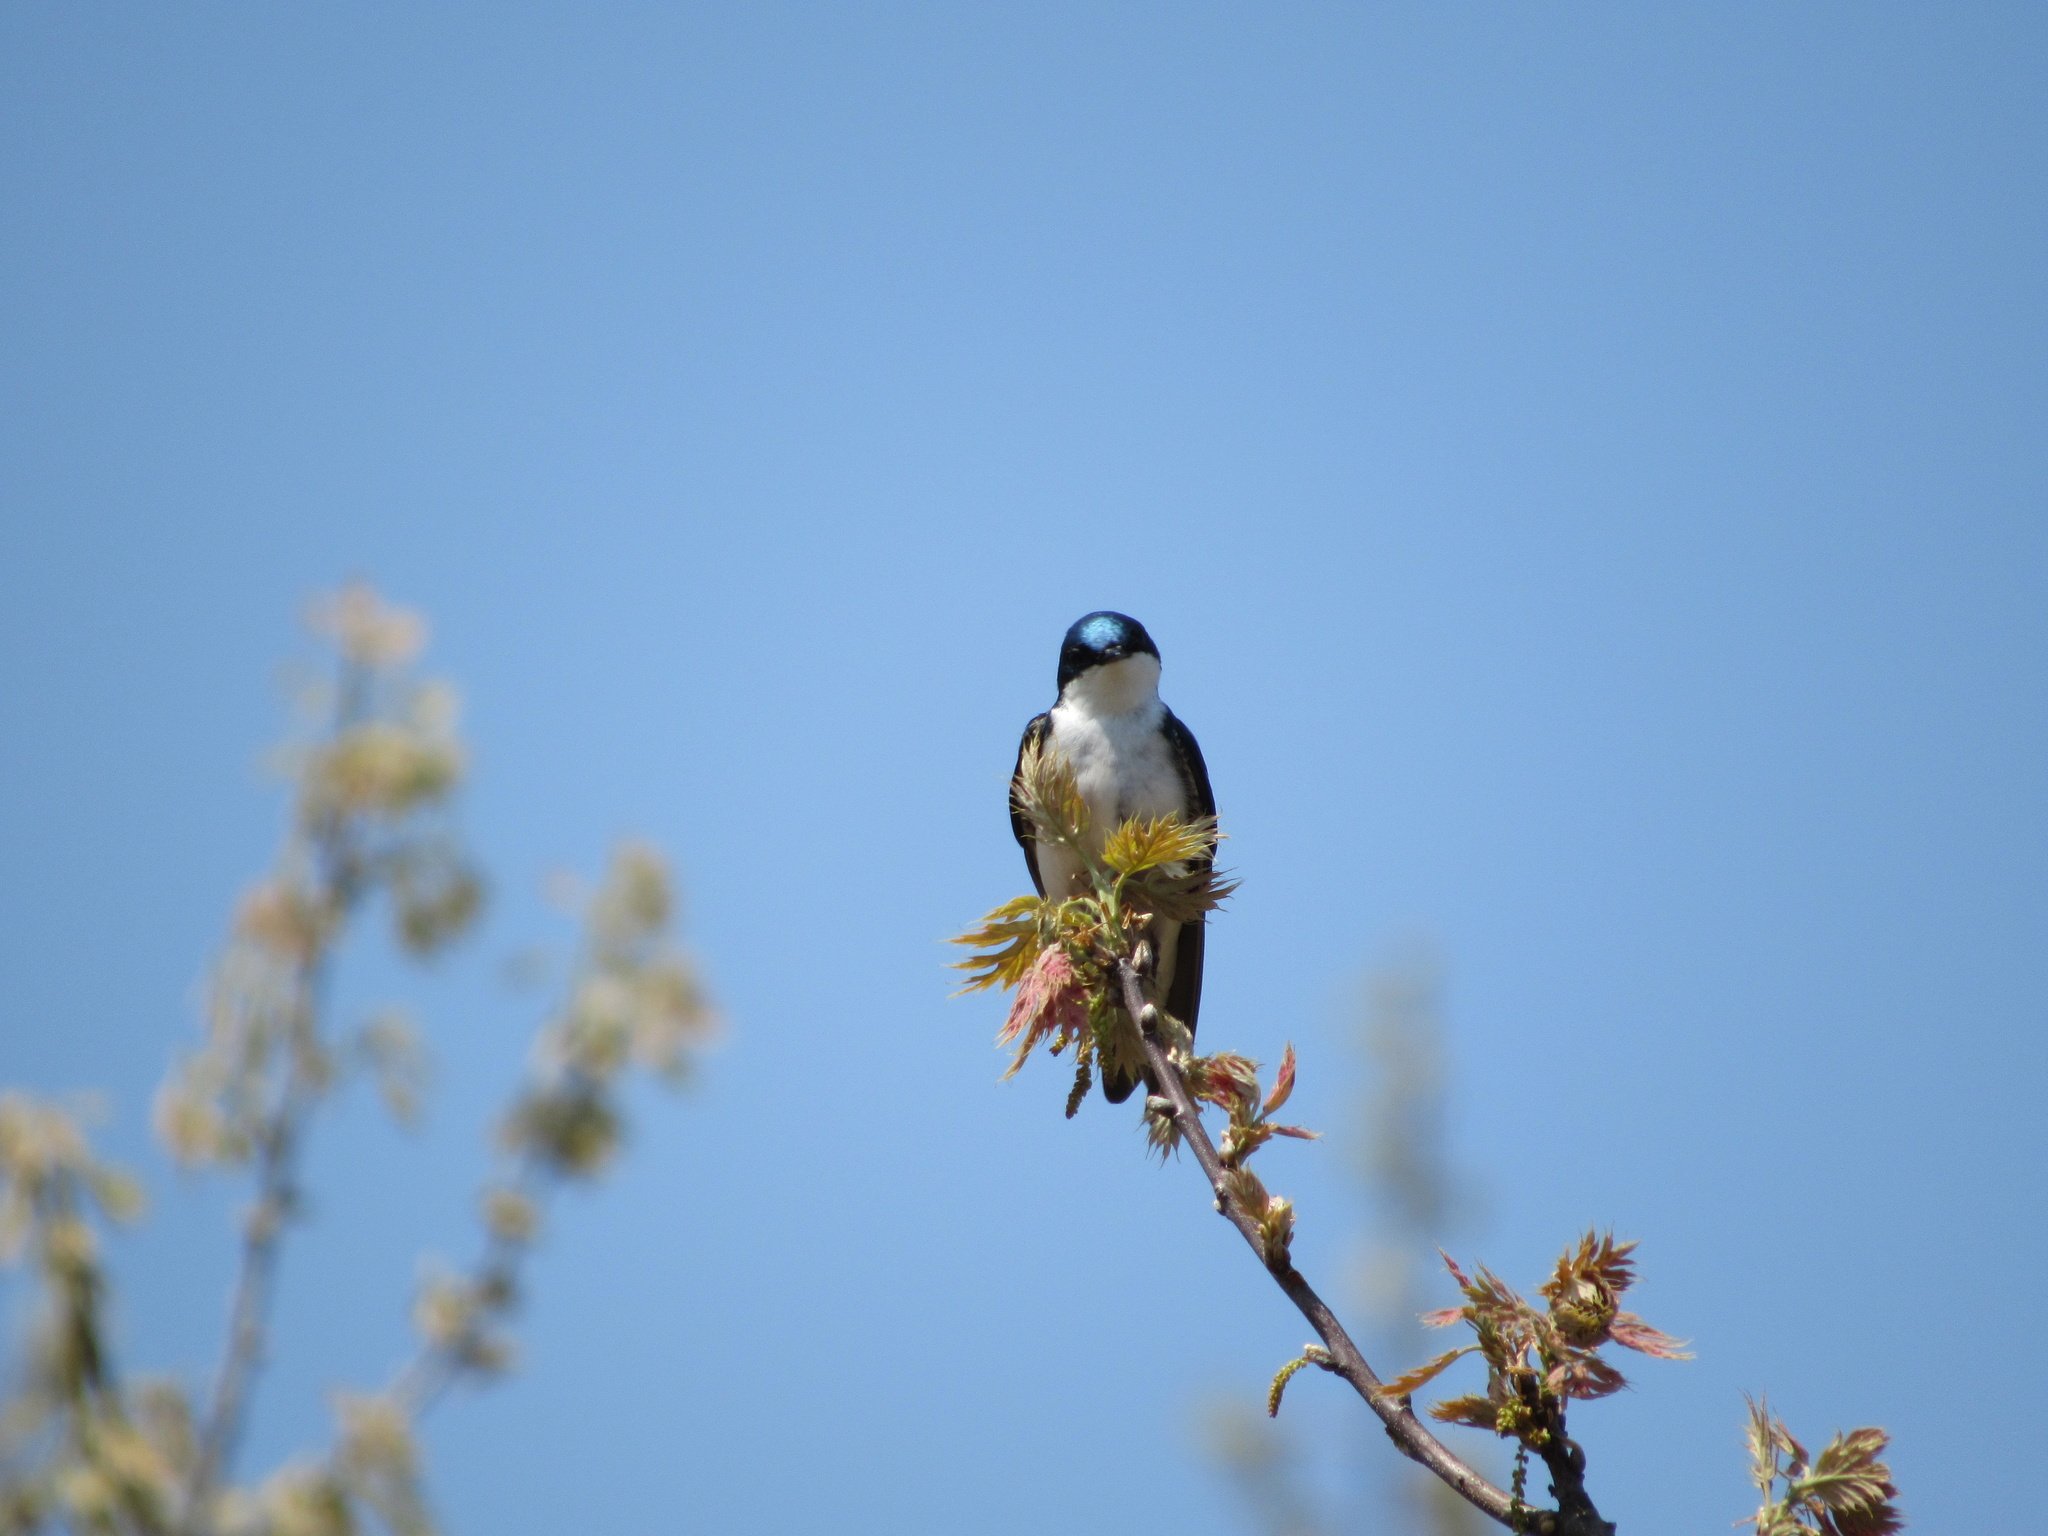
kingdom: Animalia
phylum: Chordata
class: Aves
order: Passeriformes
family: Hirundinidae
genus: Tachycineta
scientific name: Tachycineta bicolor
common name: Tree swallow
